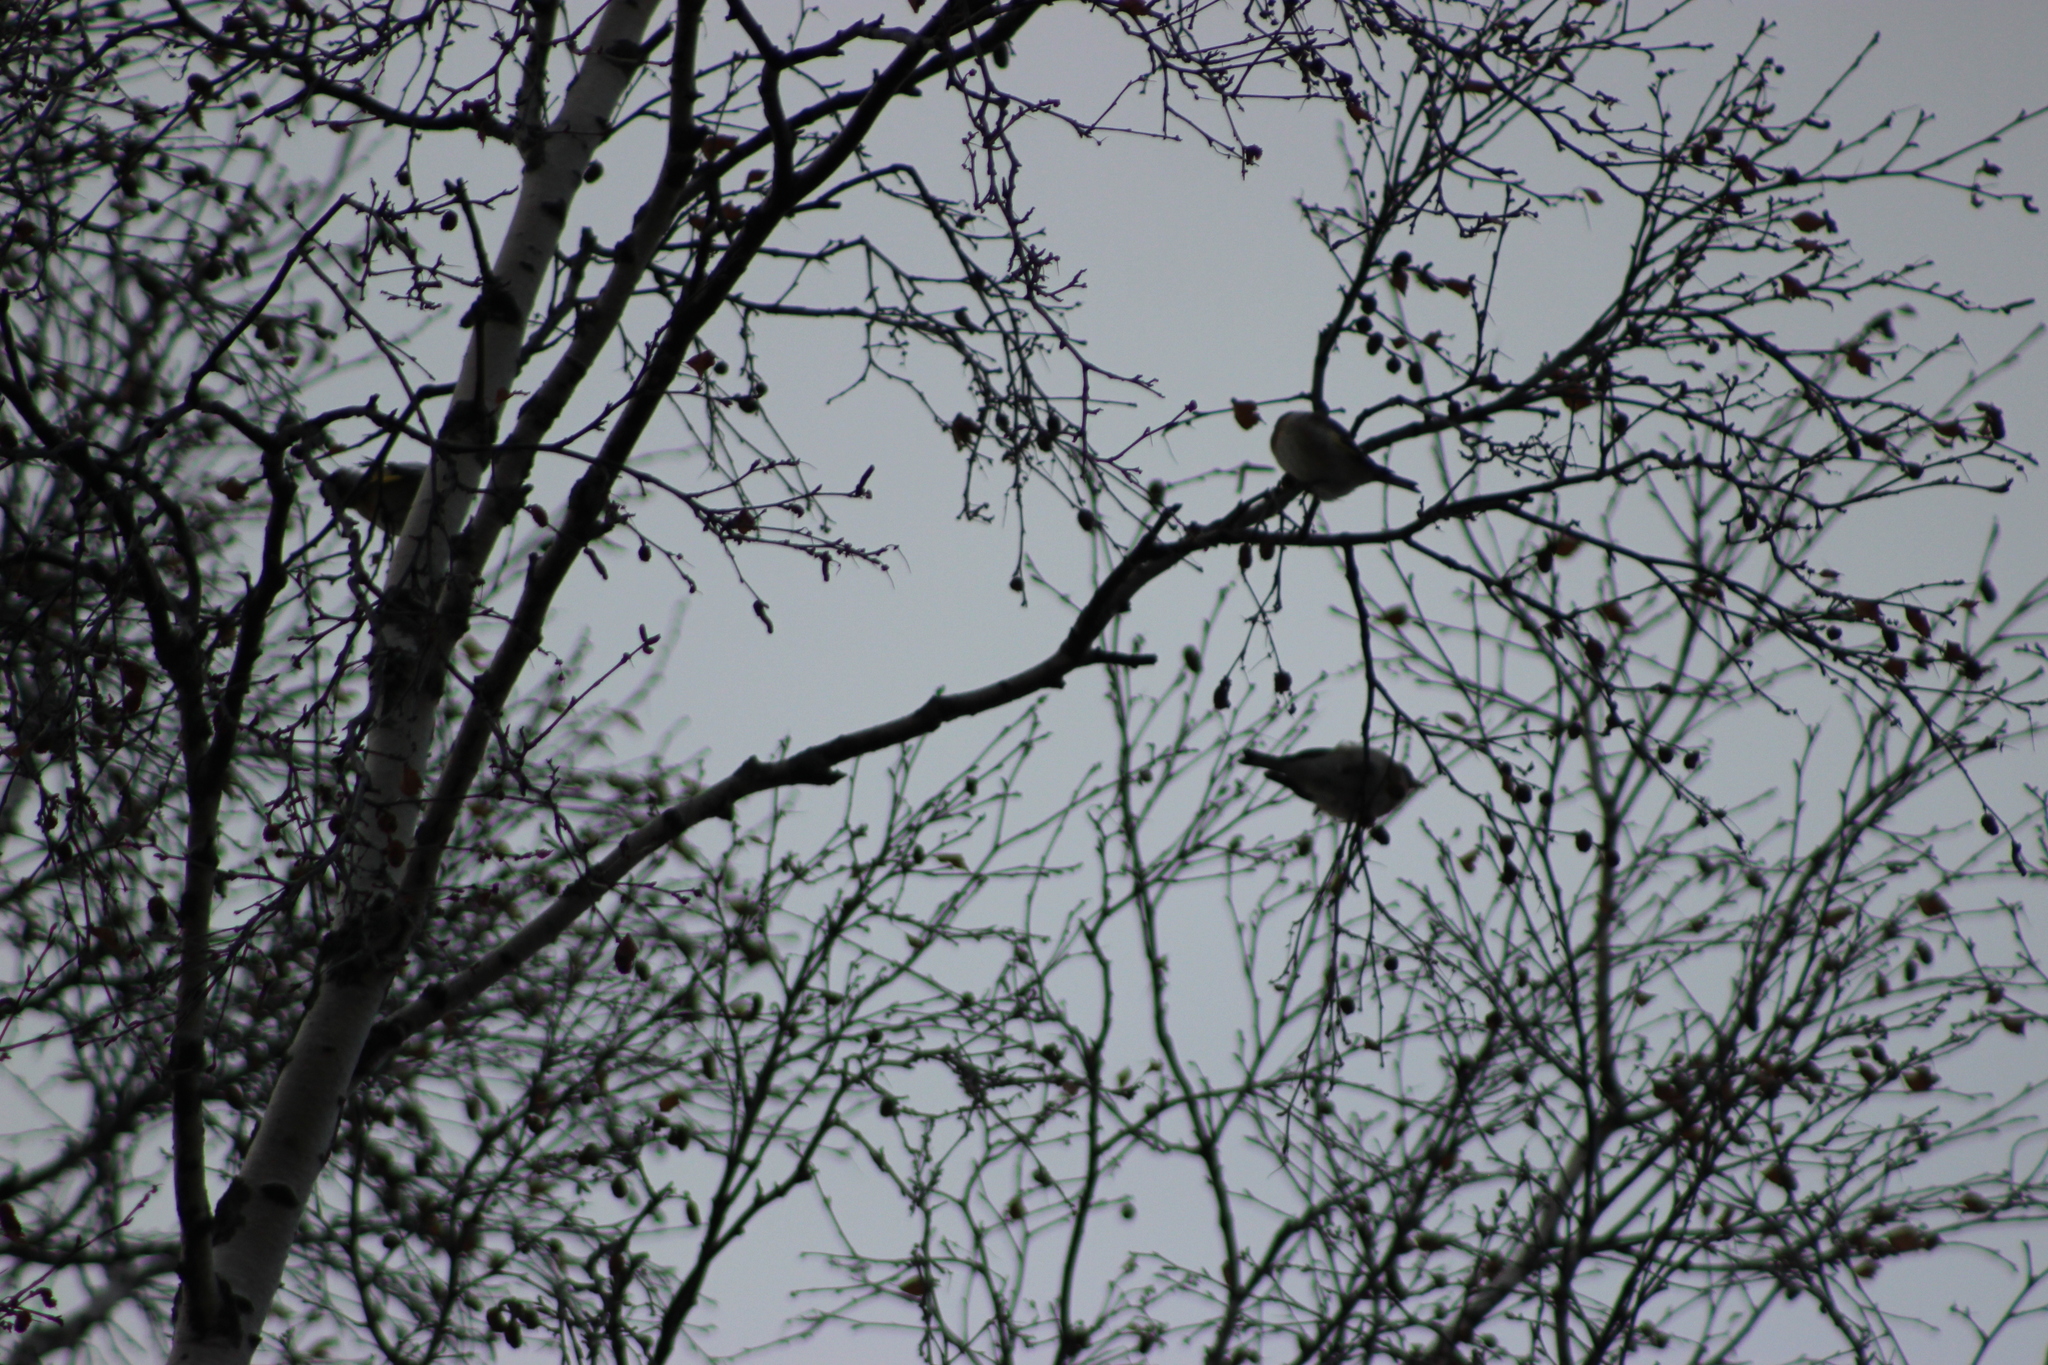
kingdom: Animalia
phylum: Chordata
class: Aves
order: Passeriformes
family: Fringillidae
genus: Carduelis
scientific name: Carduelis carduelis
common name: European goldfinch
